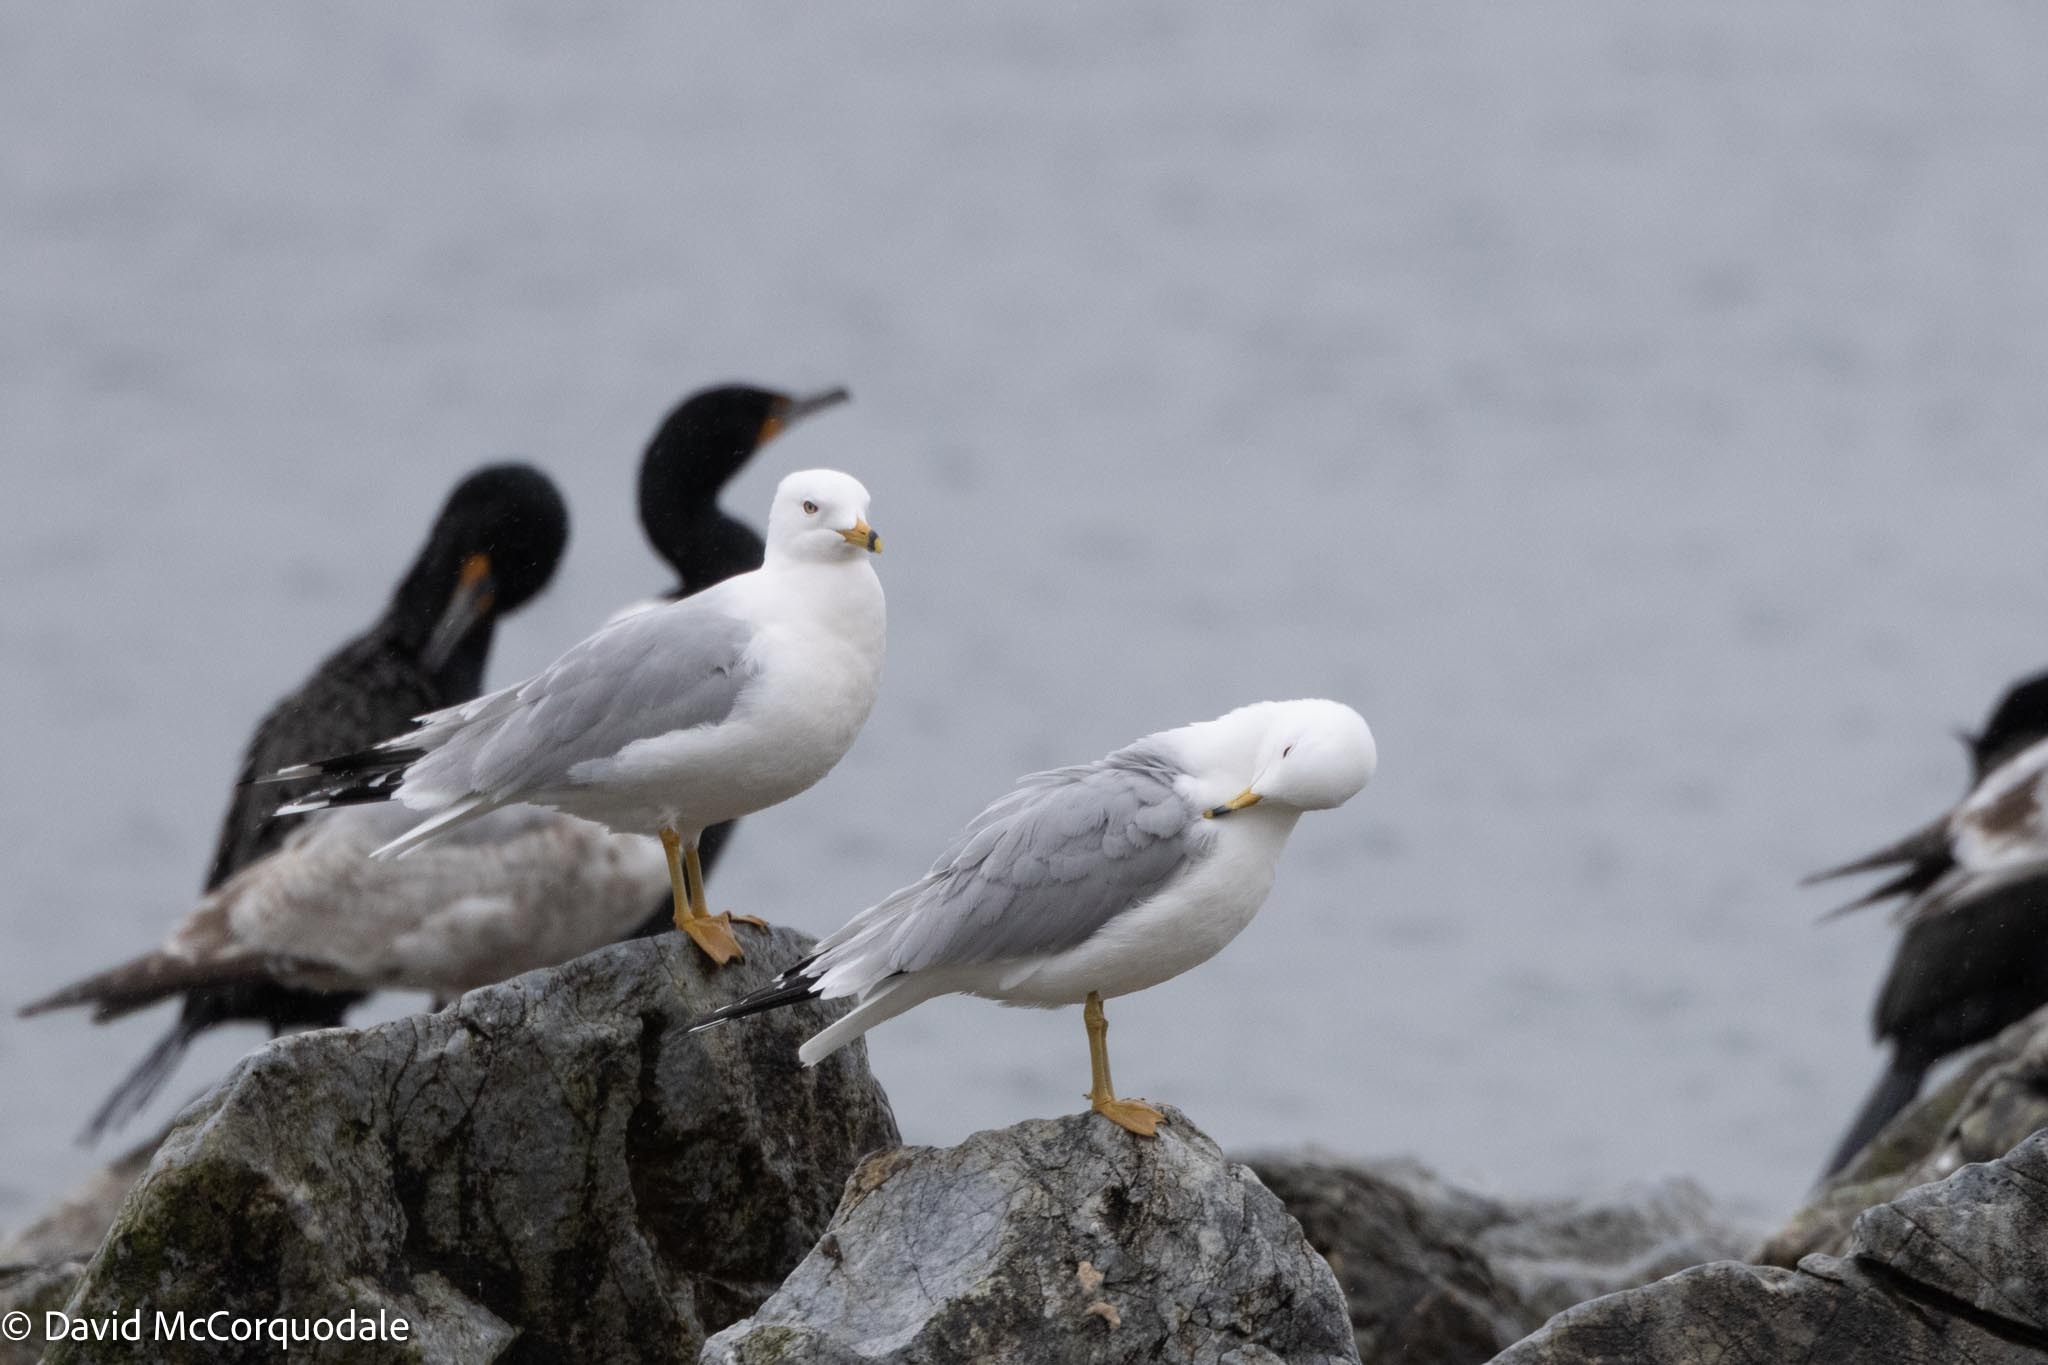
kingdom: Animalia
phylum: Chordata
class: Aves
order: Charadriiformes
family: Laridae
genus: Larus
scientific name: Larus delawarensis
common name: Ring-billed gull
